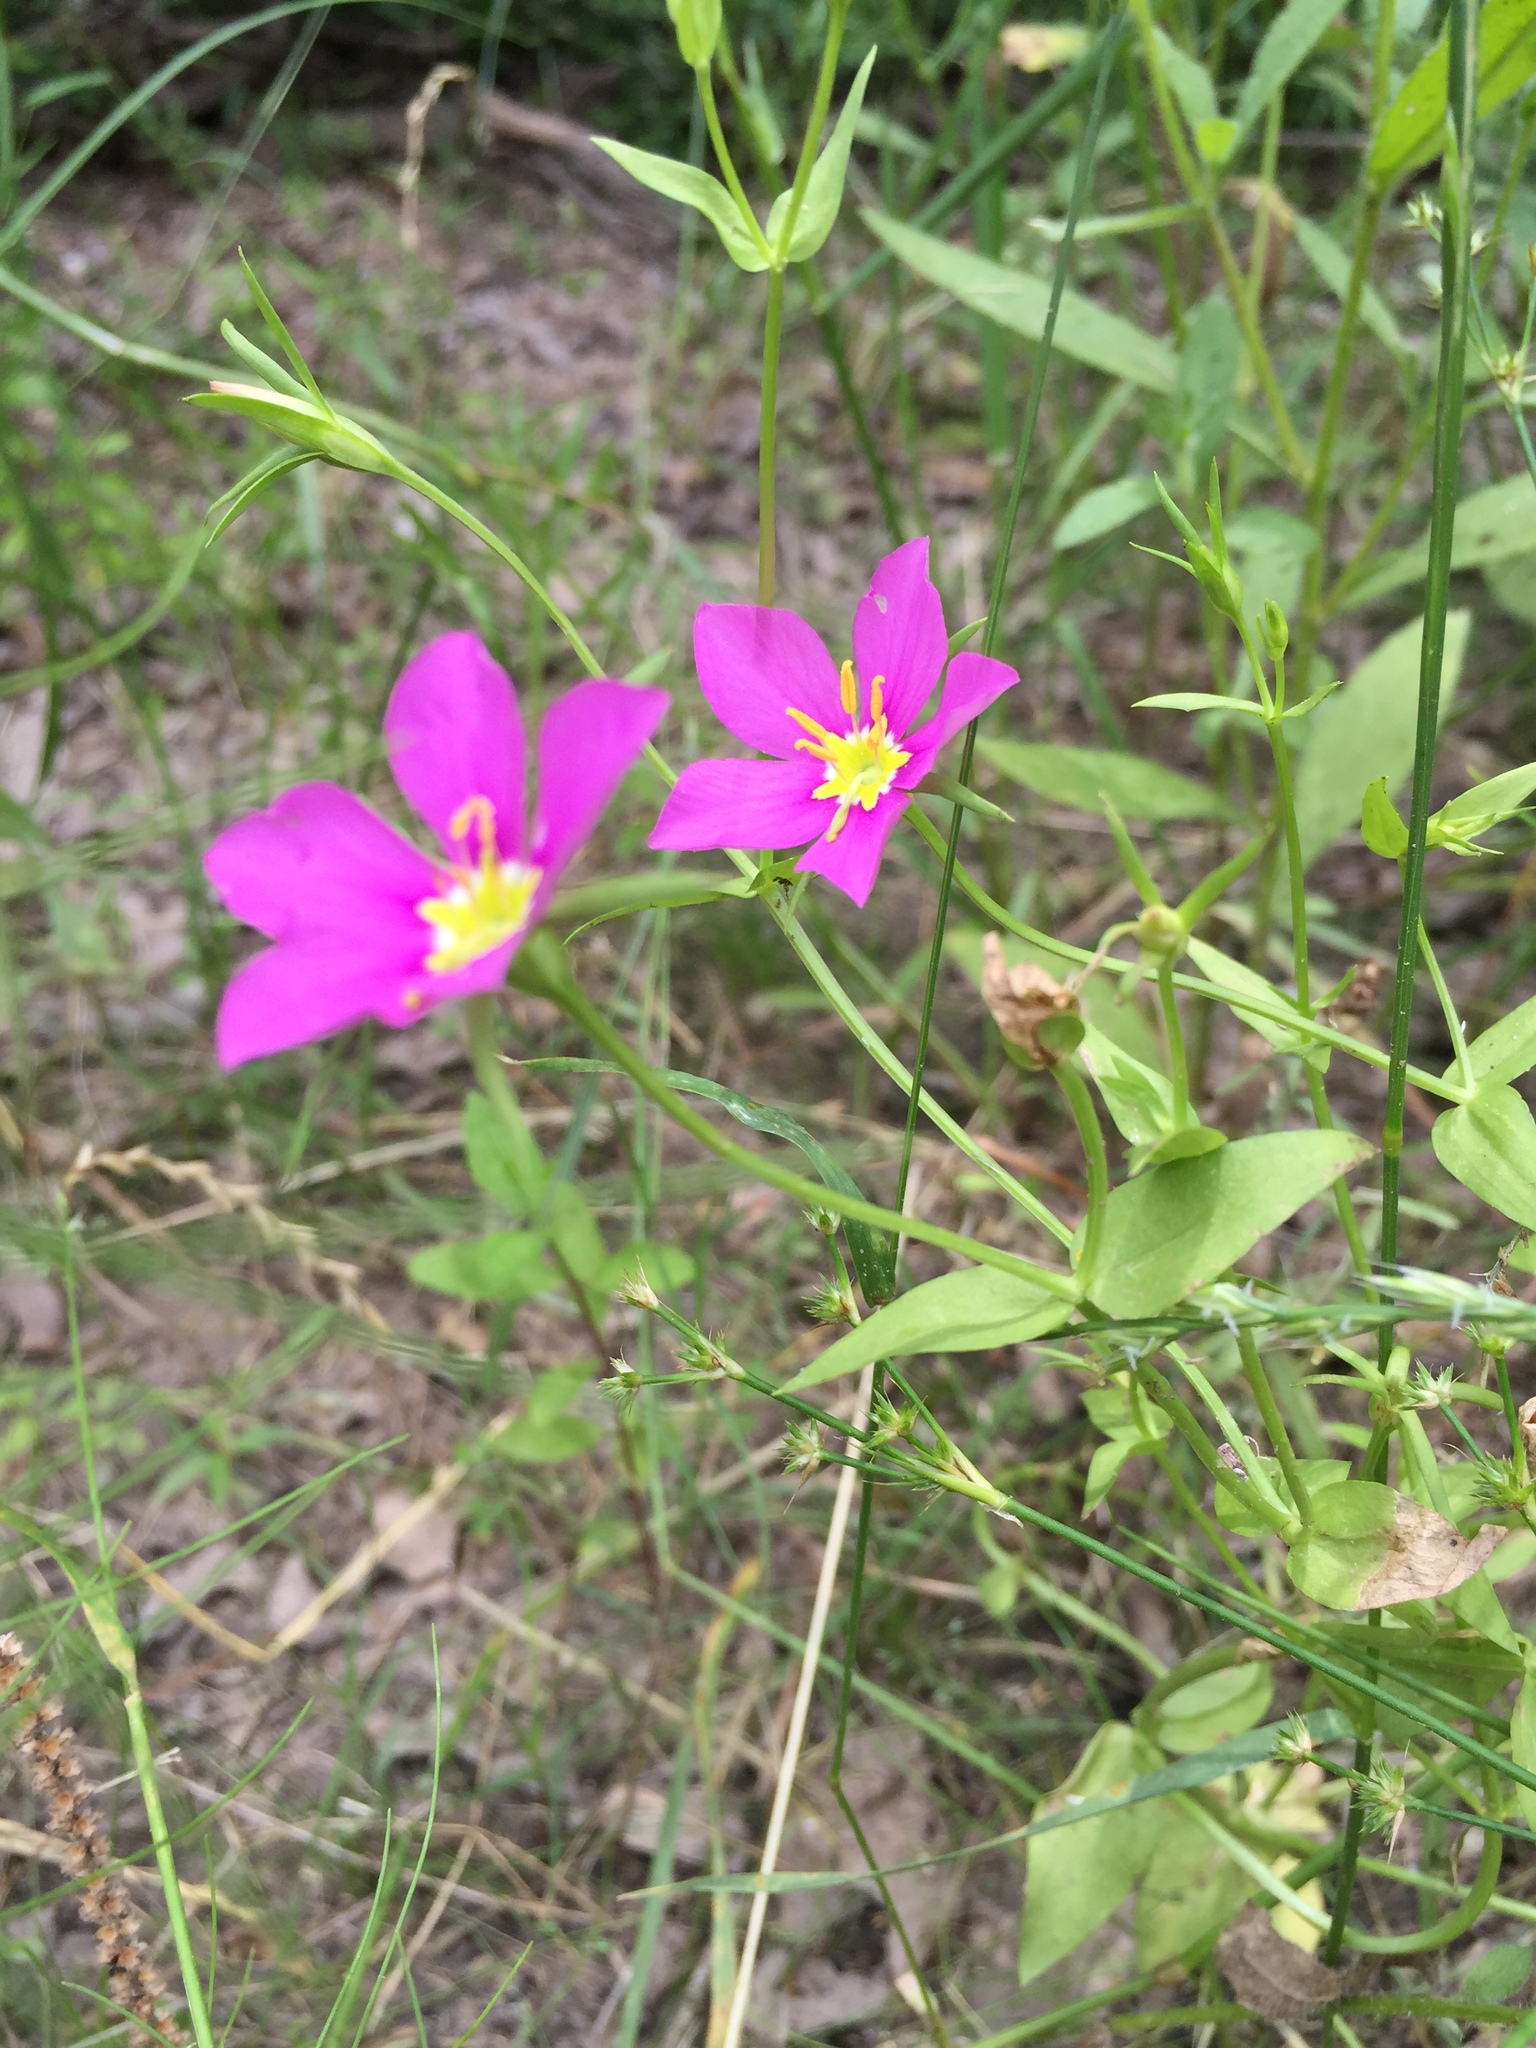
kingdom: Plantae
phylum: Tracheophyta
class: Magnoliopsida
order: Gentianales
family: Gentianaceae
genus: Sabatia
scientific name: Sabatia campestris
